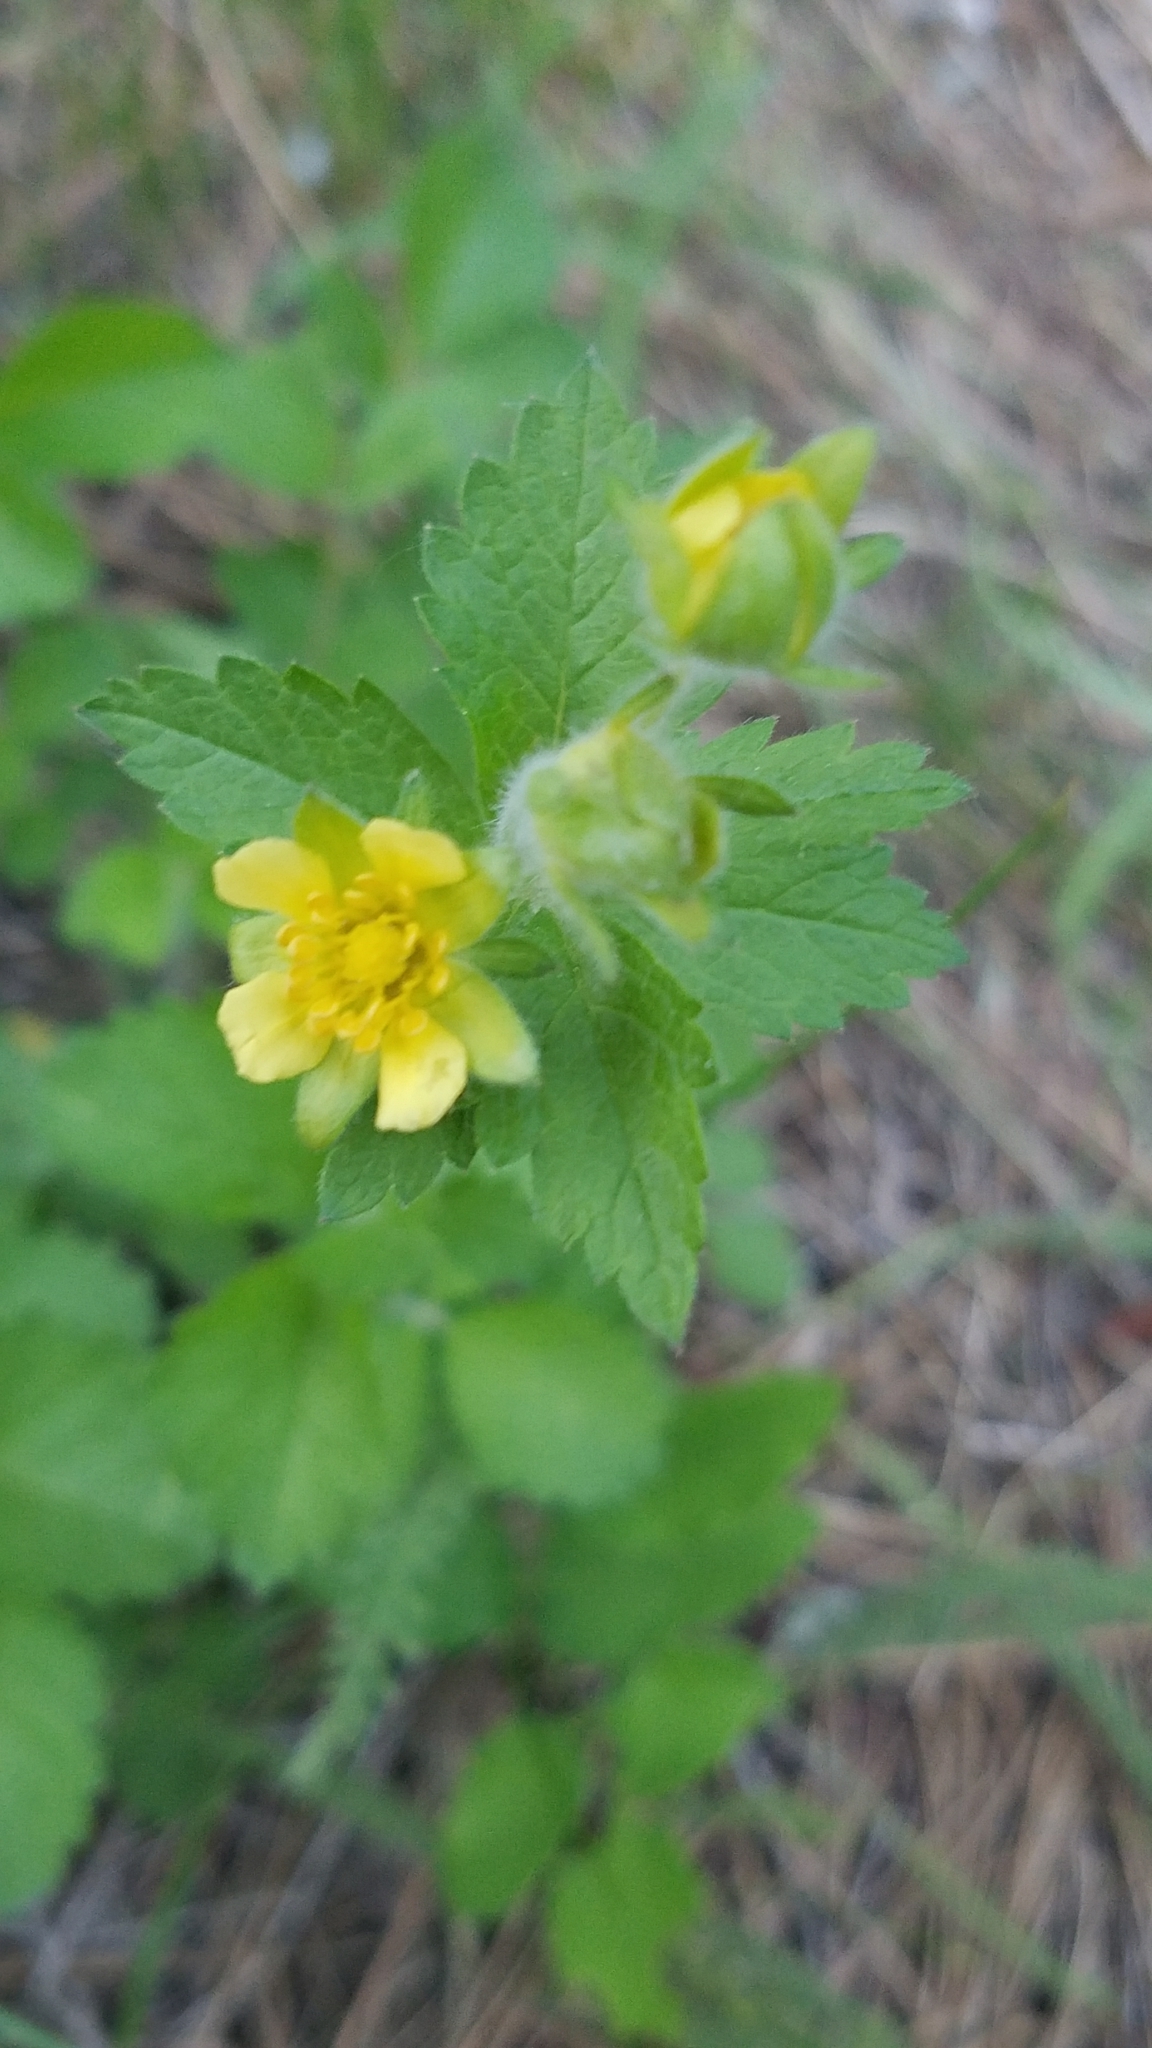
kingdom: Plantae
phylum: Tracheophyta
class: Magnoliopsida
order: Rosales
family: Rosaceae
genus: Drymocallis
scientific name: Drymocallis glandulosa
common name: Sticky cinquefoil
